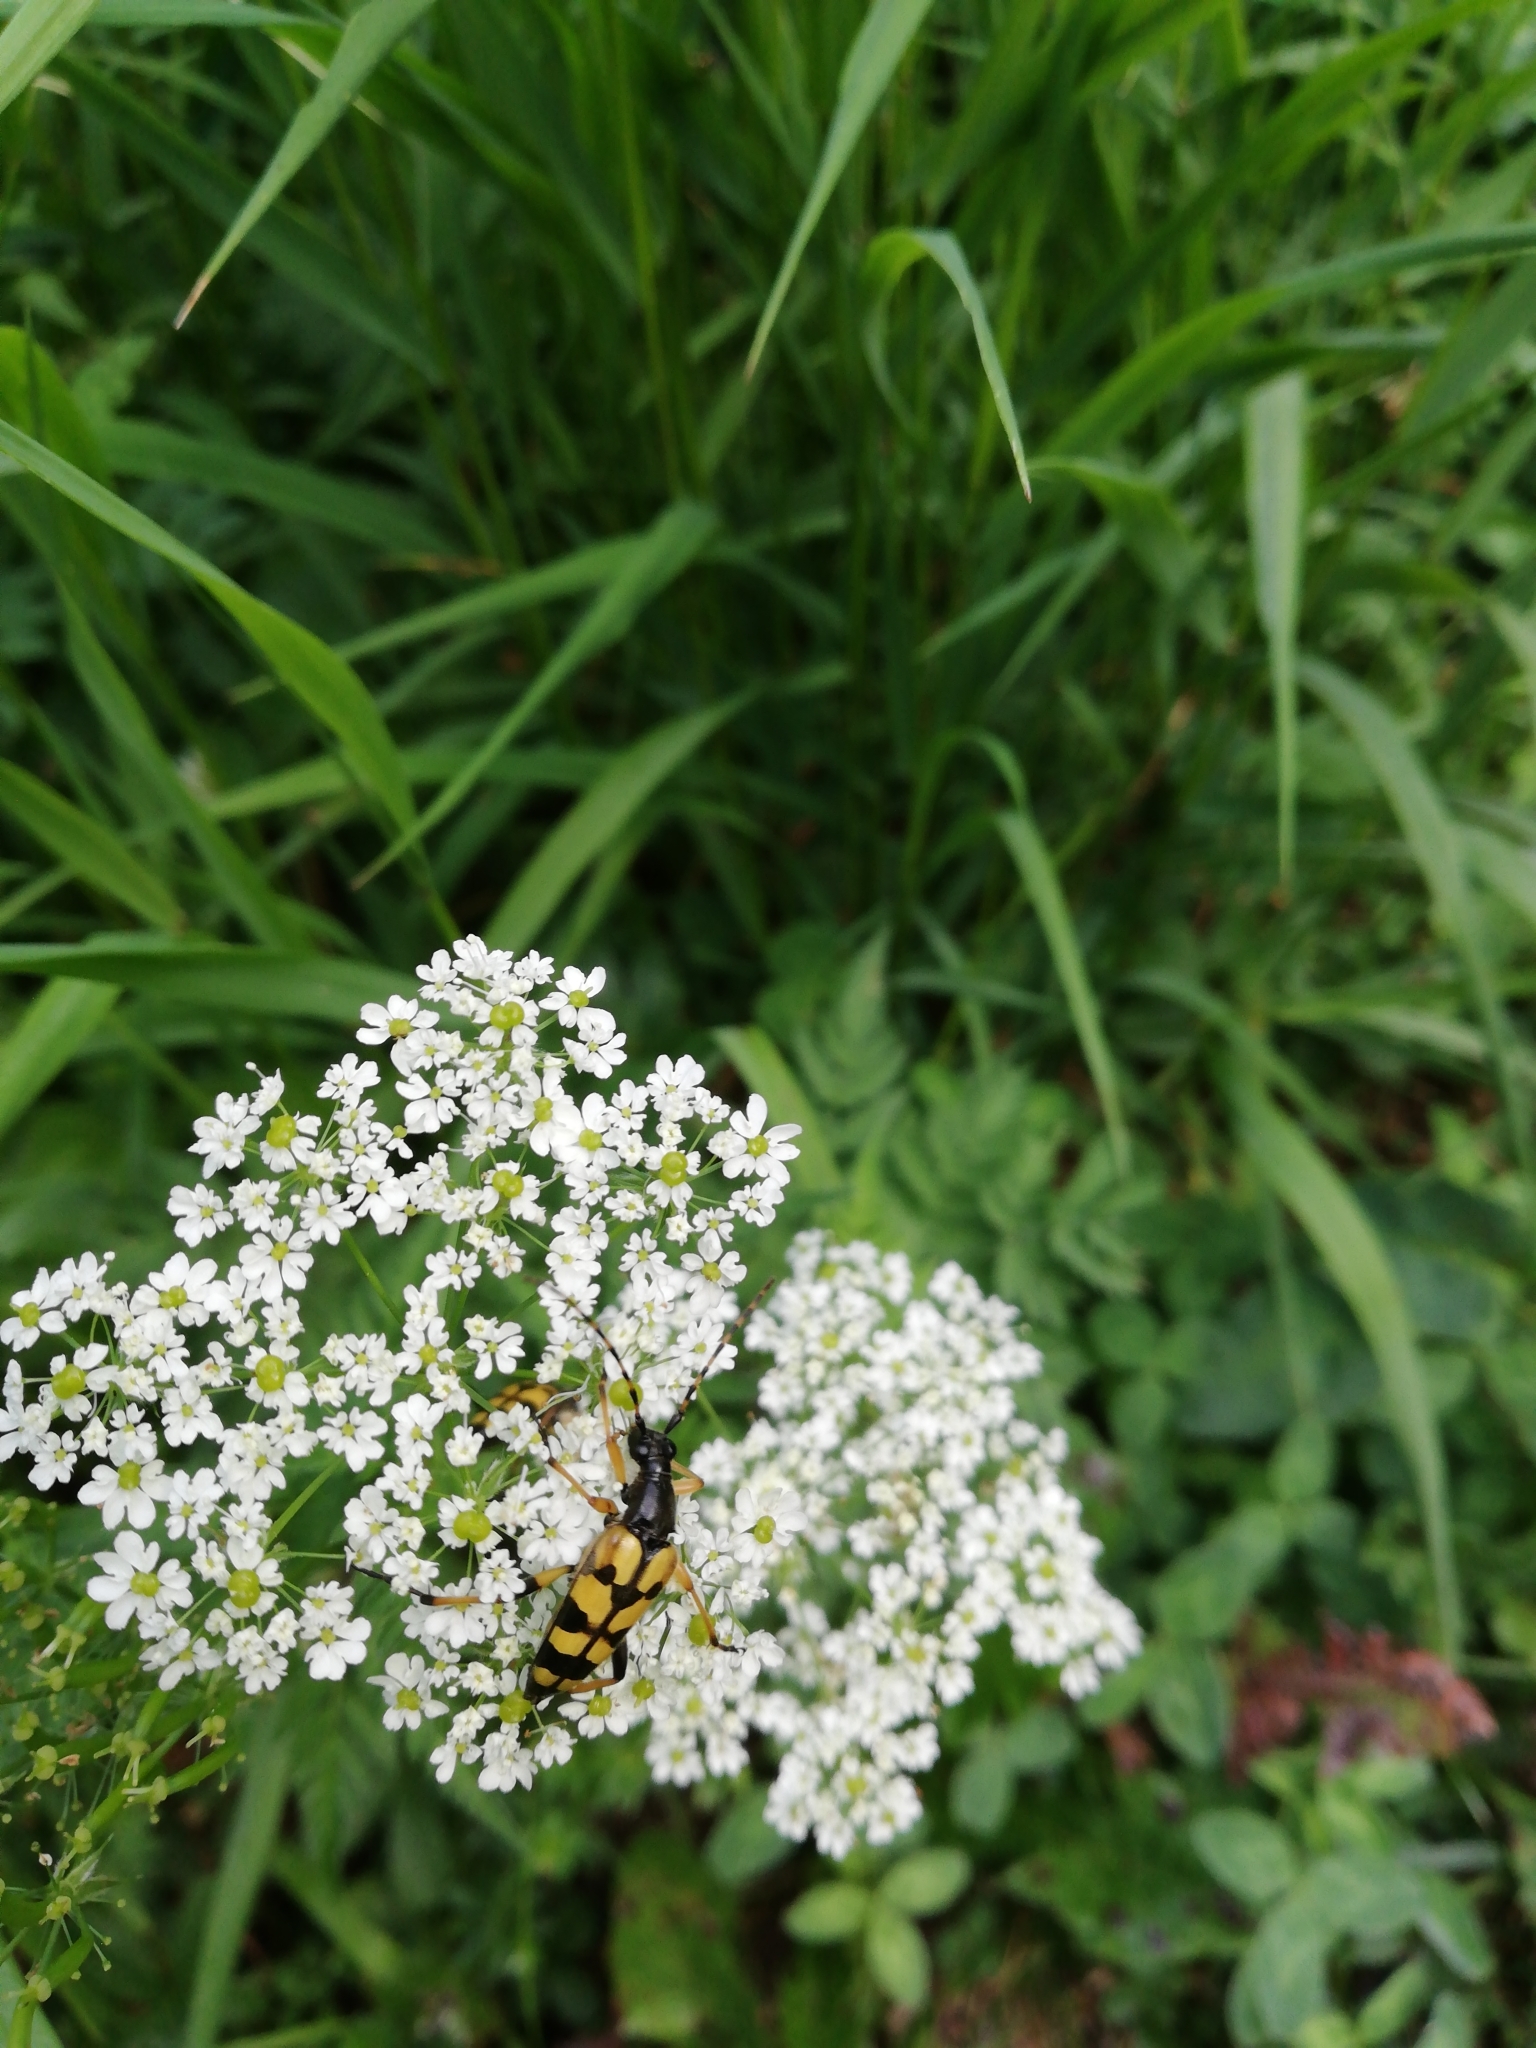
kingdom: Animalia
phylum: Arthropoda
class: Insecta
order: Coleoptera
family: Cerambycidae
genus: Rutpela
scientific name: Rutpela maculata
